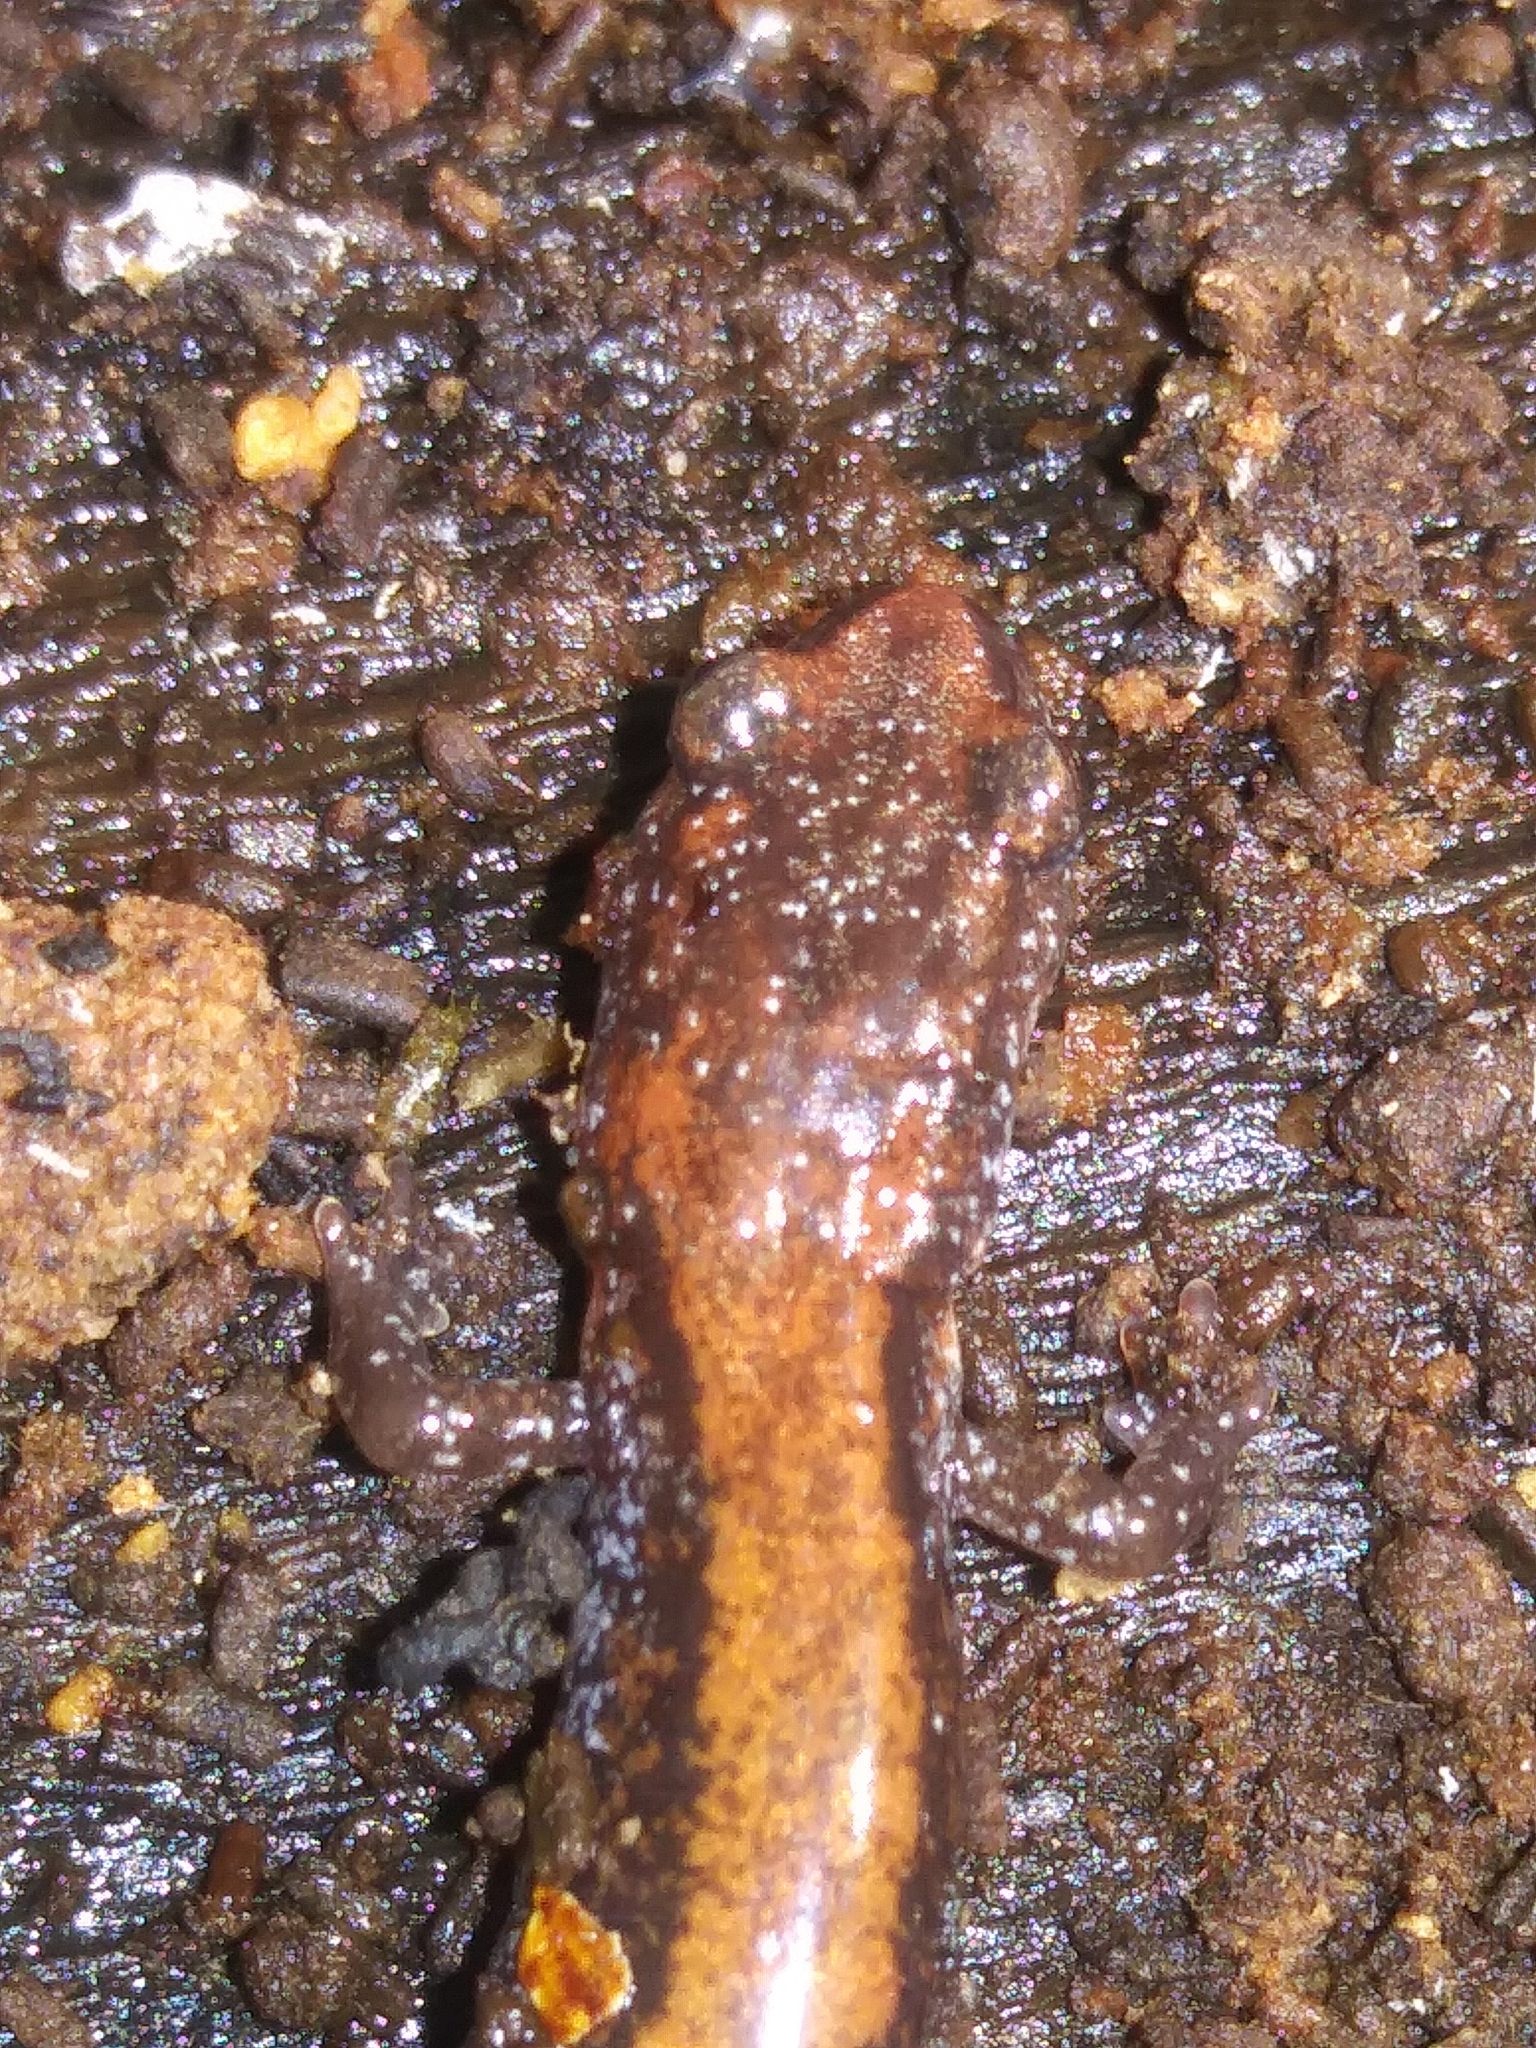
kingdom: Animalia
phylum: Chordata
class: Amphibia
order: Caudata
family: Plethodontidae
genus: Plethodon
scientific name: Plethodon cinereus
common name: Redback salamander
